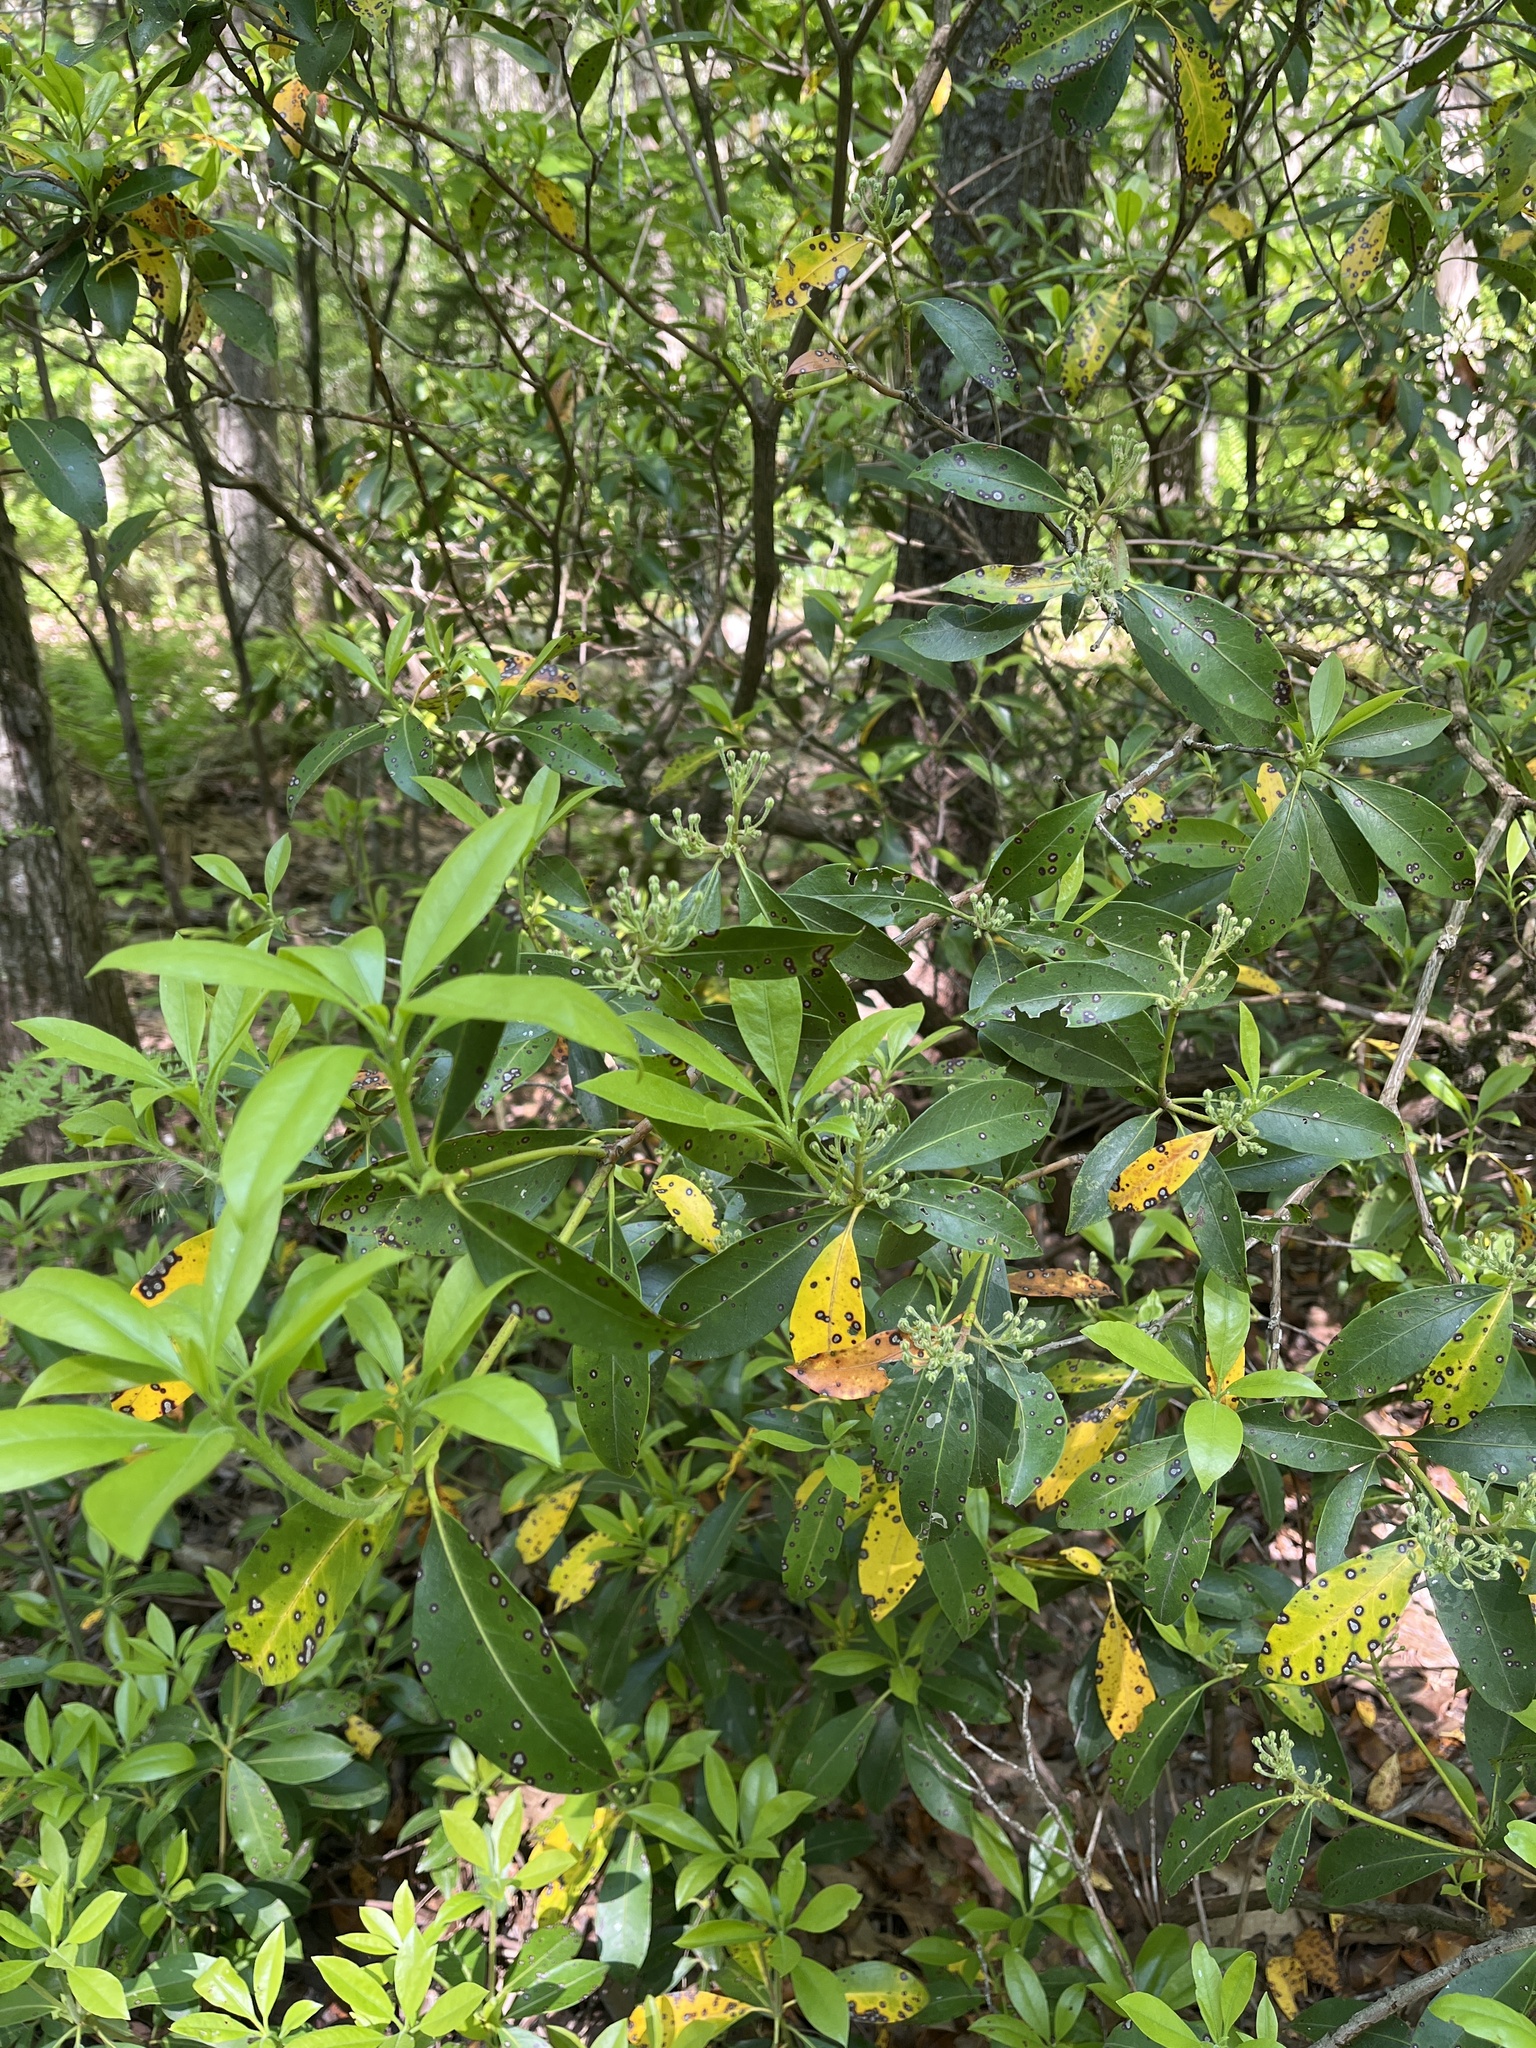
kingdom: Plantae
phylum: Tracheophyta
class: Magnoliopsida
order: Ericales
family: Ericaceae
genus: Kalmia
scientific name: Kalmia latifolia
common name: Mountain-laurel
